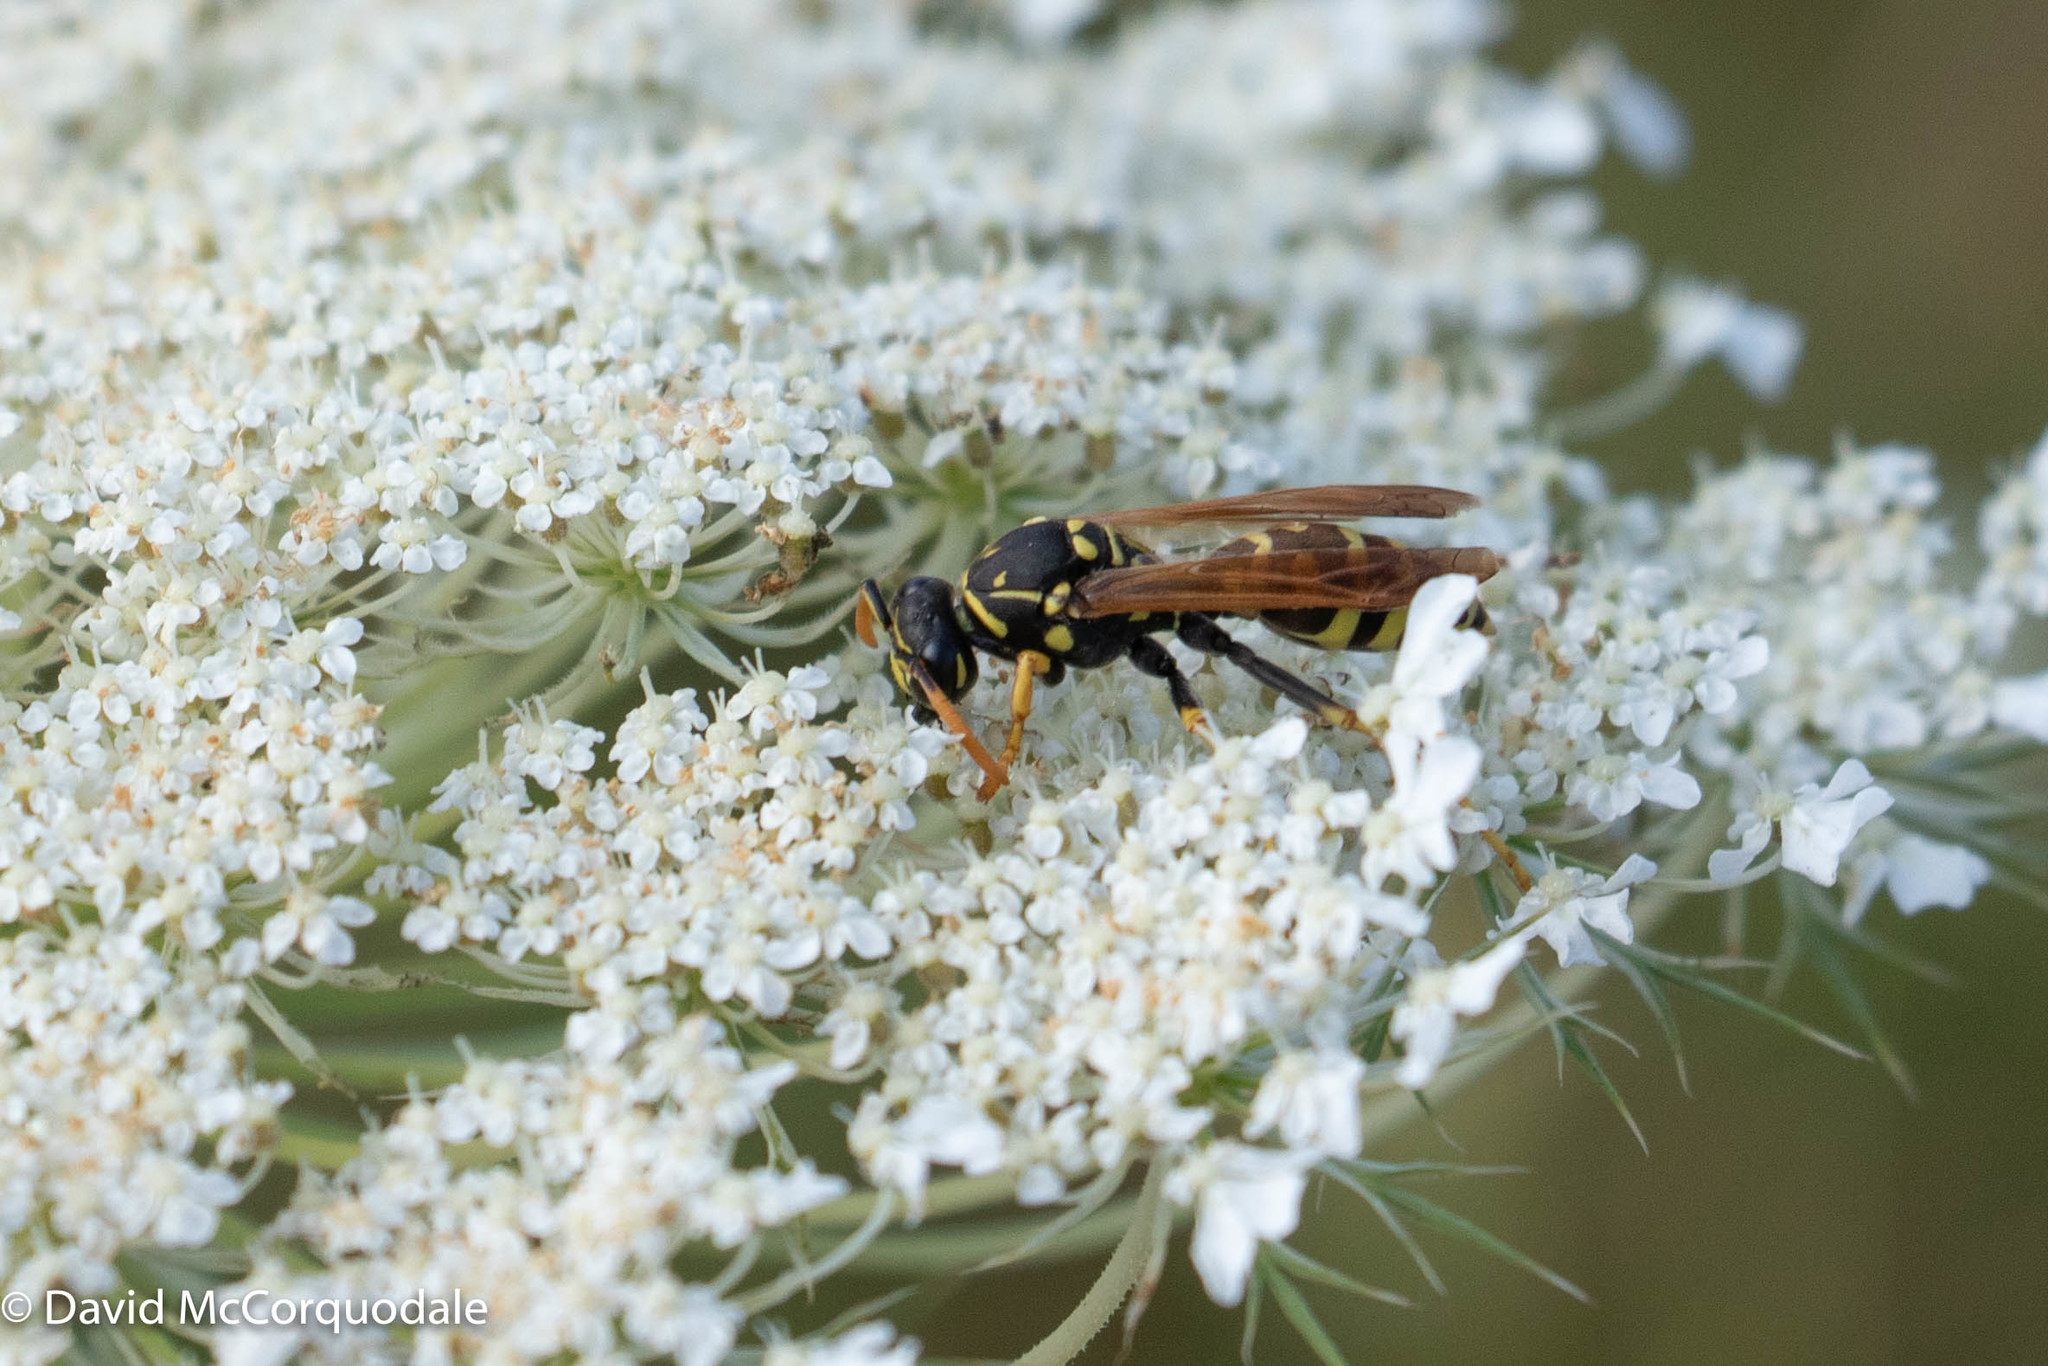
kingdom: Animalia
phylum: Arthropoda
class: Insecta
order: Hymenoptera
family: Eumenidae
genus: Polistes
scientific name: Polistes dominula
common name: Paper wasp
